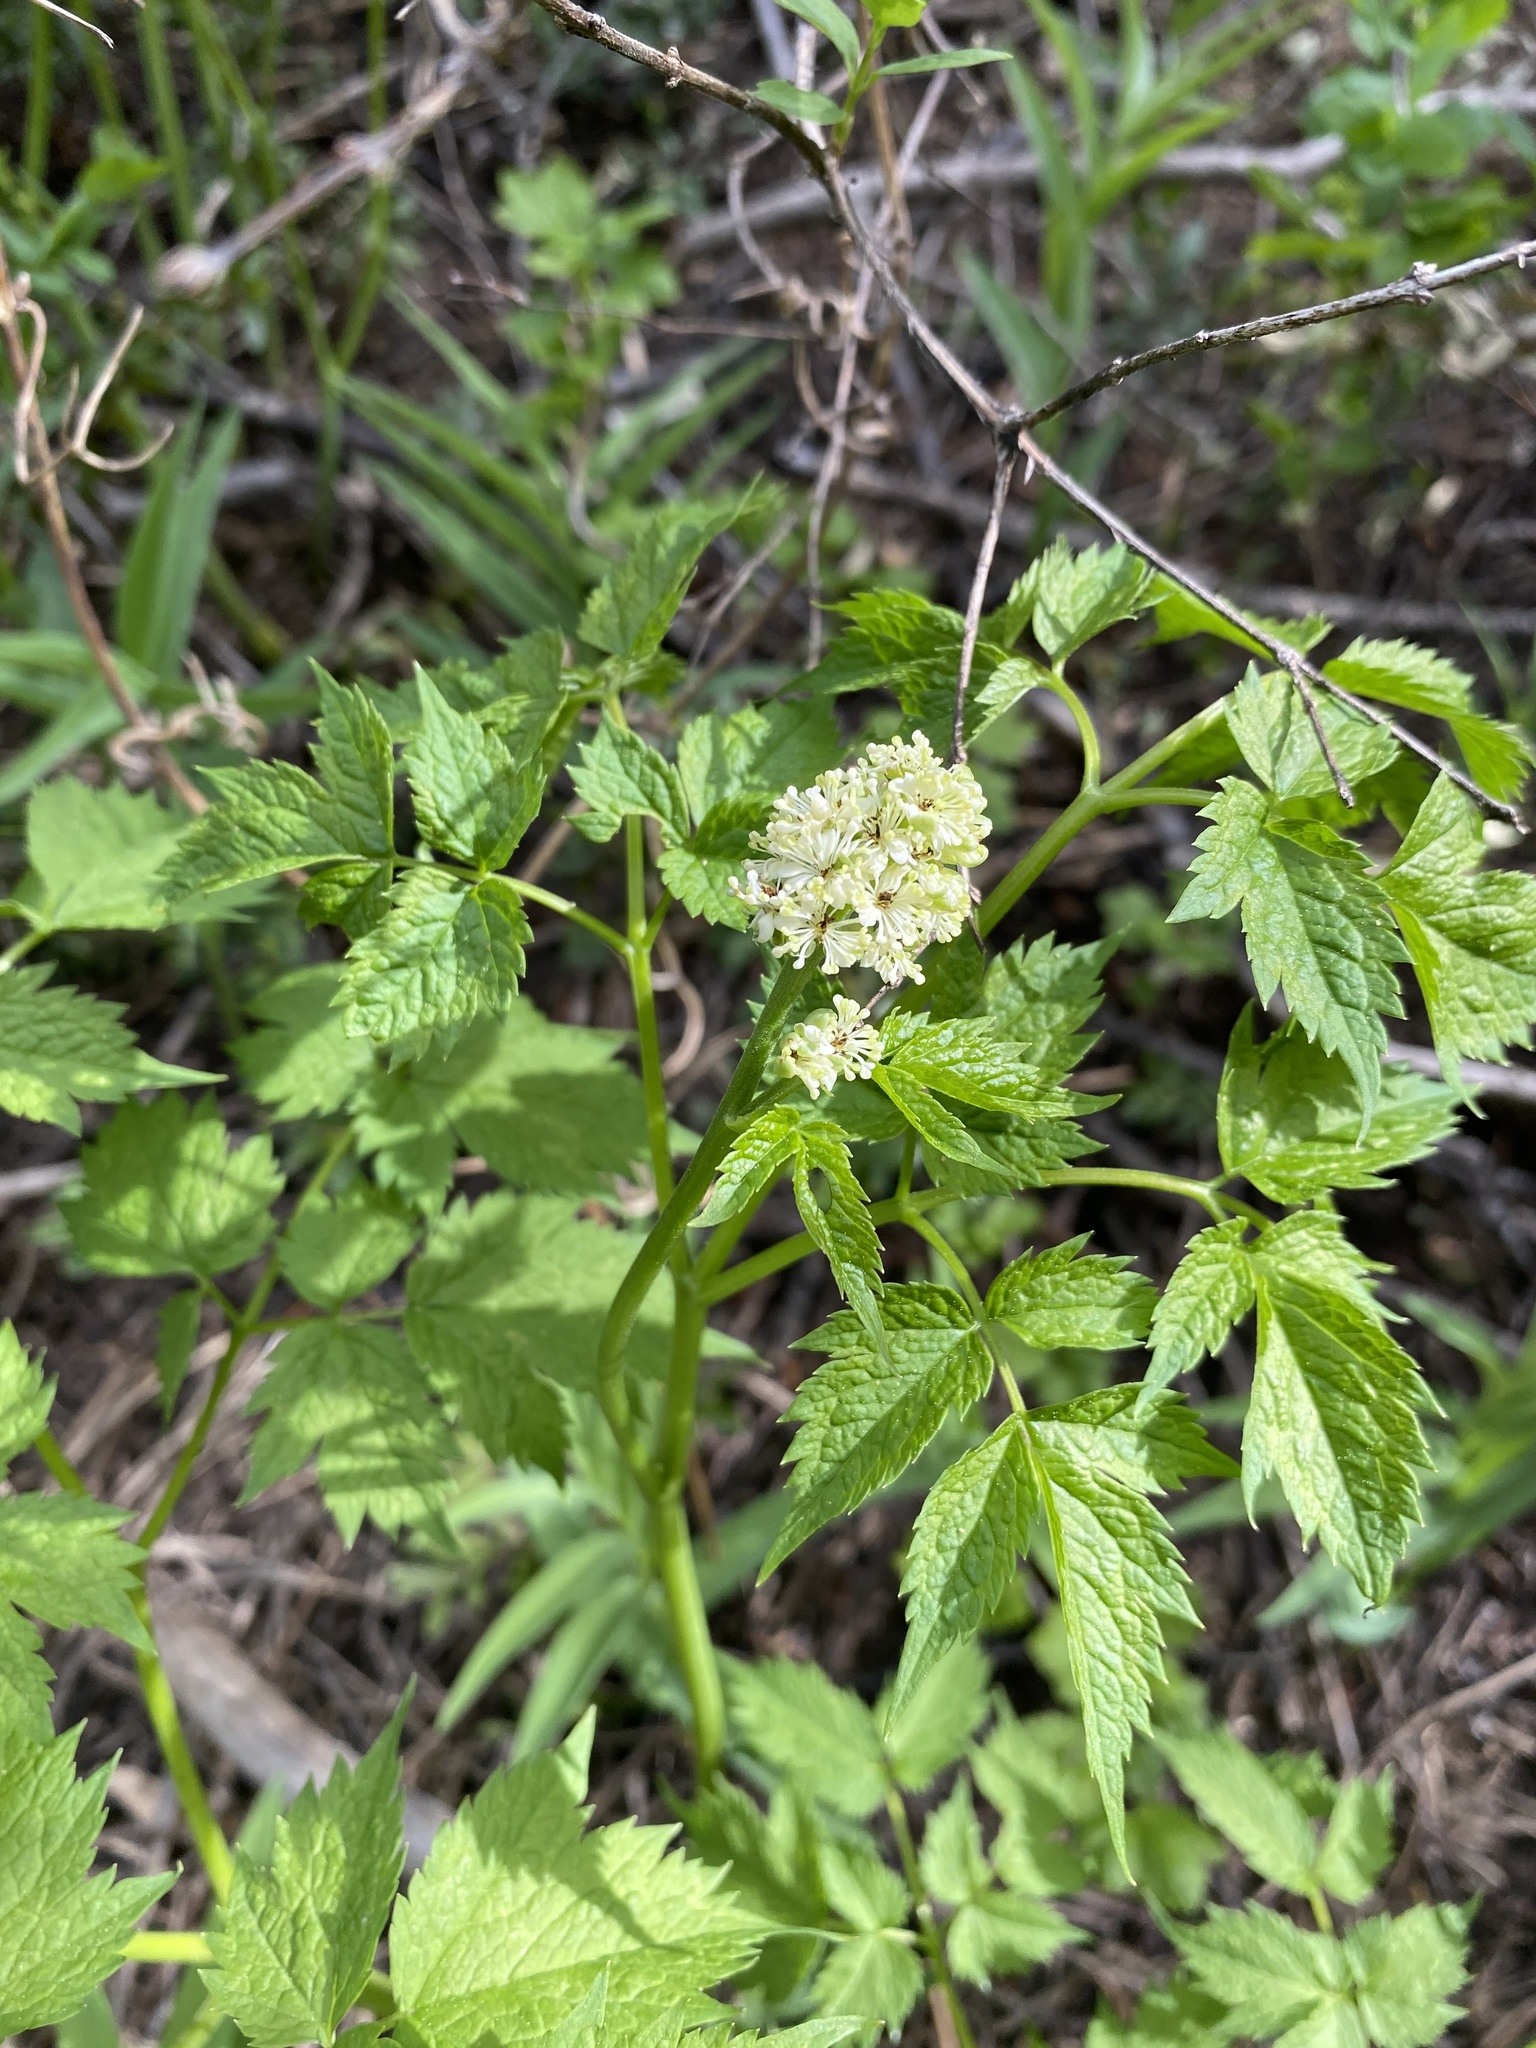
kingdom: Plantae
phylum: Tracheophyta
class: Magnoliopsida
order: Ranunculales
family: Ranunculaceae
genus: Actaea
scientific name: Actaea rubra
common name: Red baneberry
